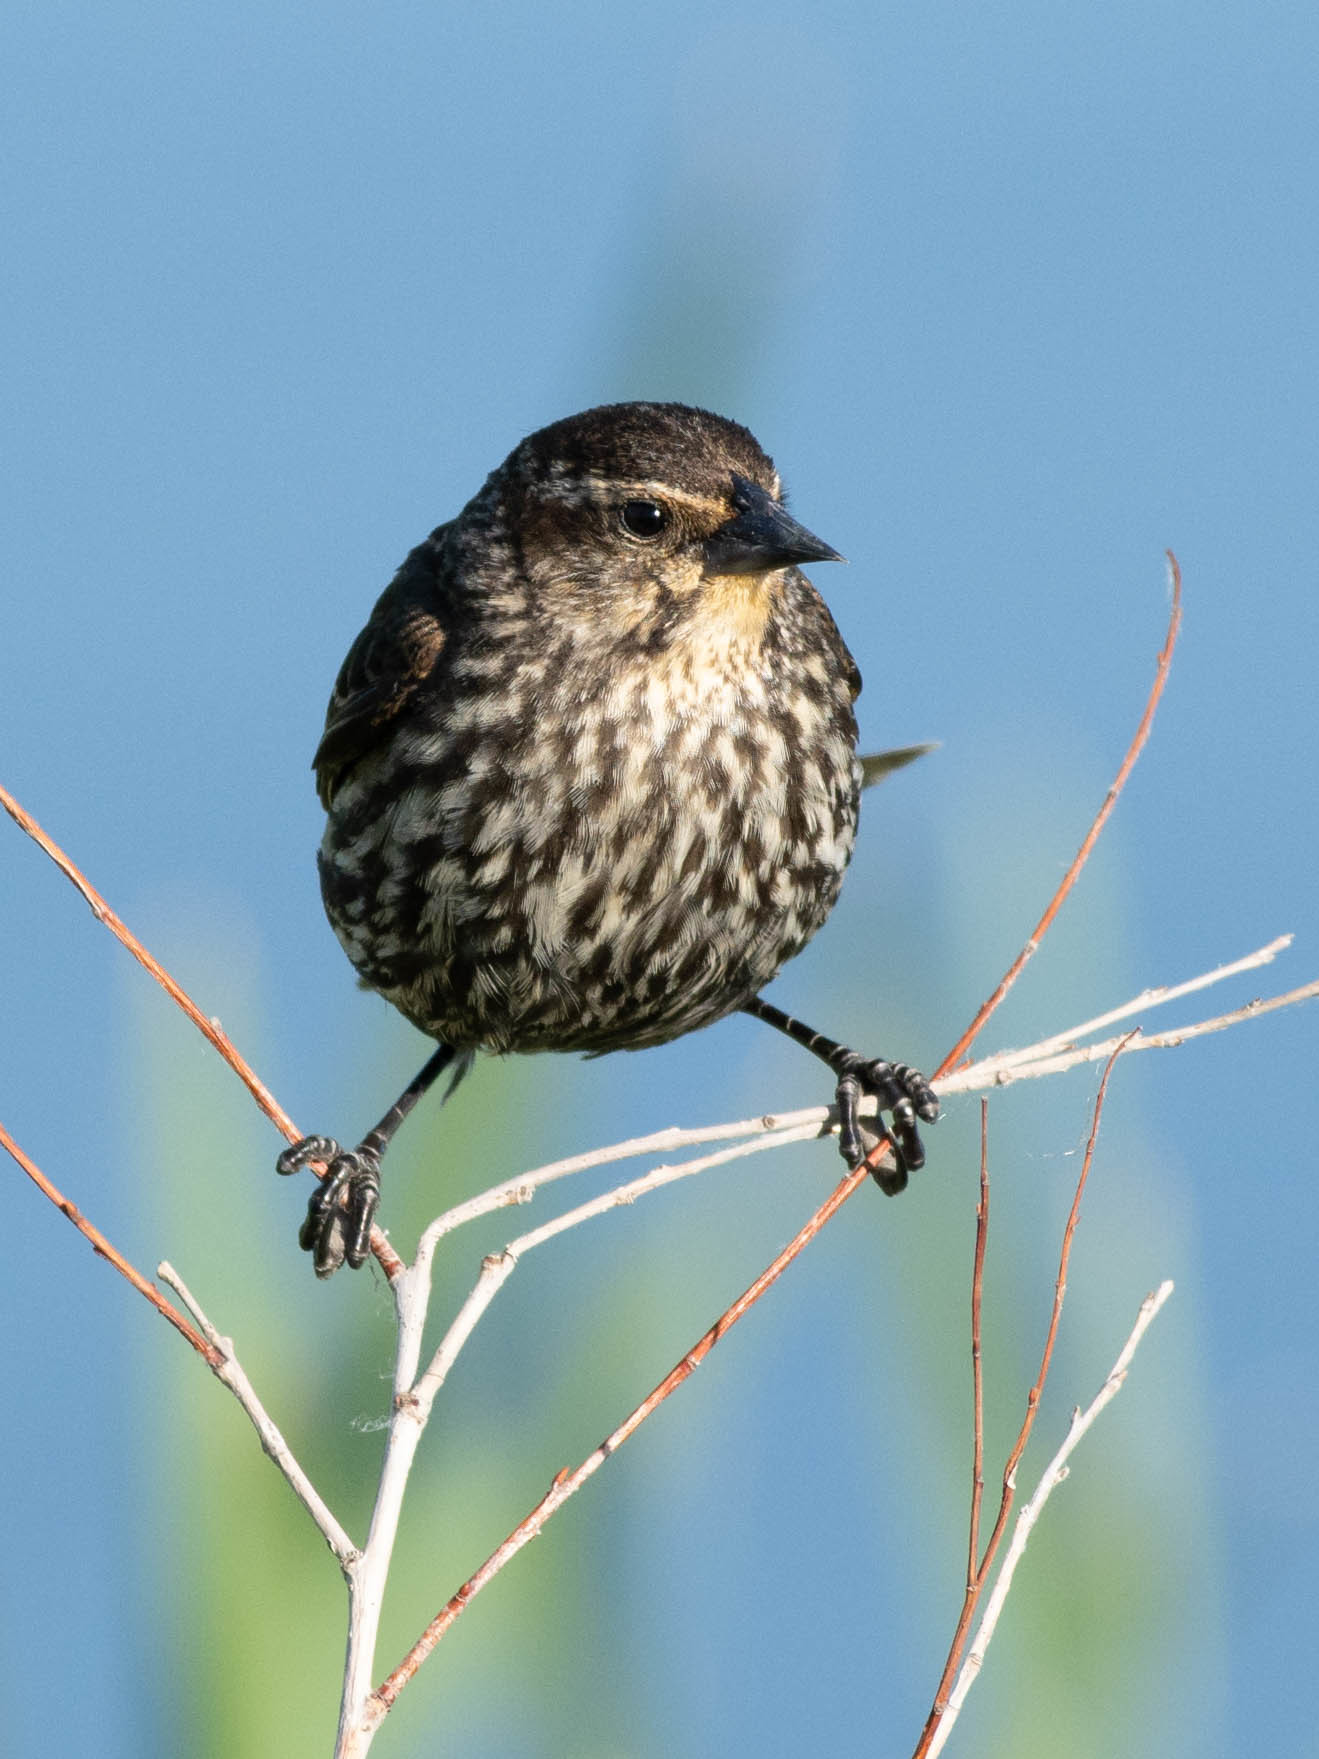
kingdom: Animalia
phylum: Chordata
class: Aves
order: Passeriformes
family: Icteridae
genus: Agelaius
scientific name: Agelaius phoeniceus
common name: Red-winged blackbird
